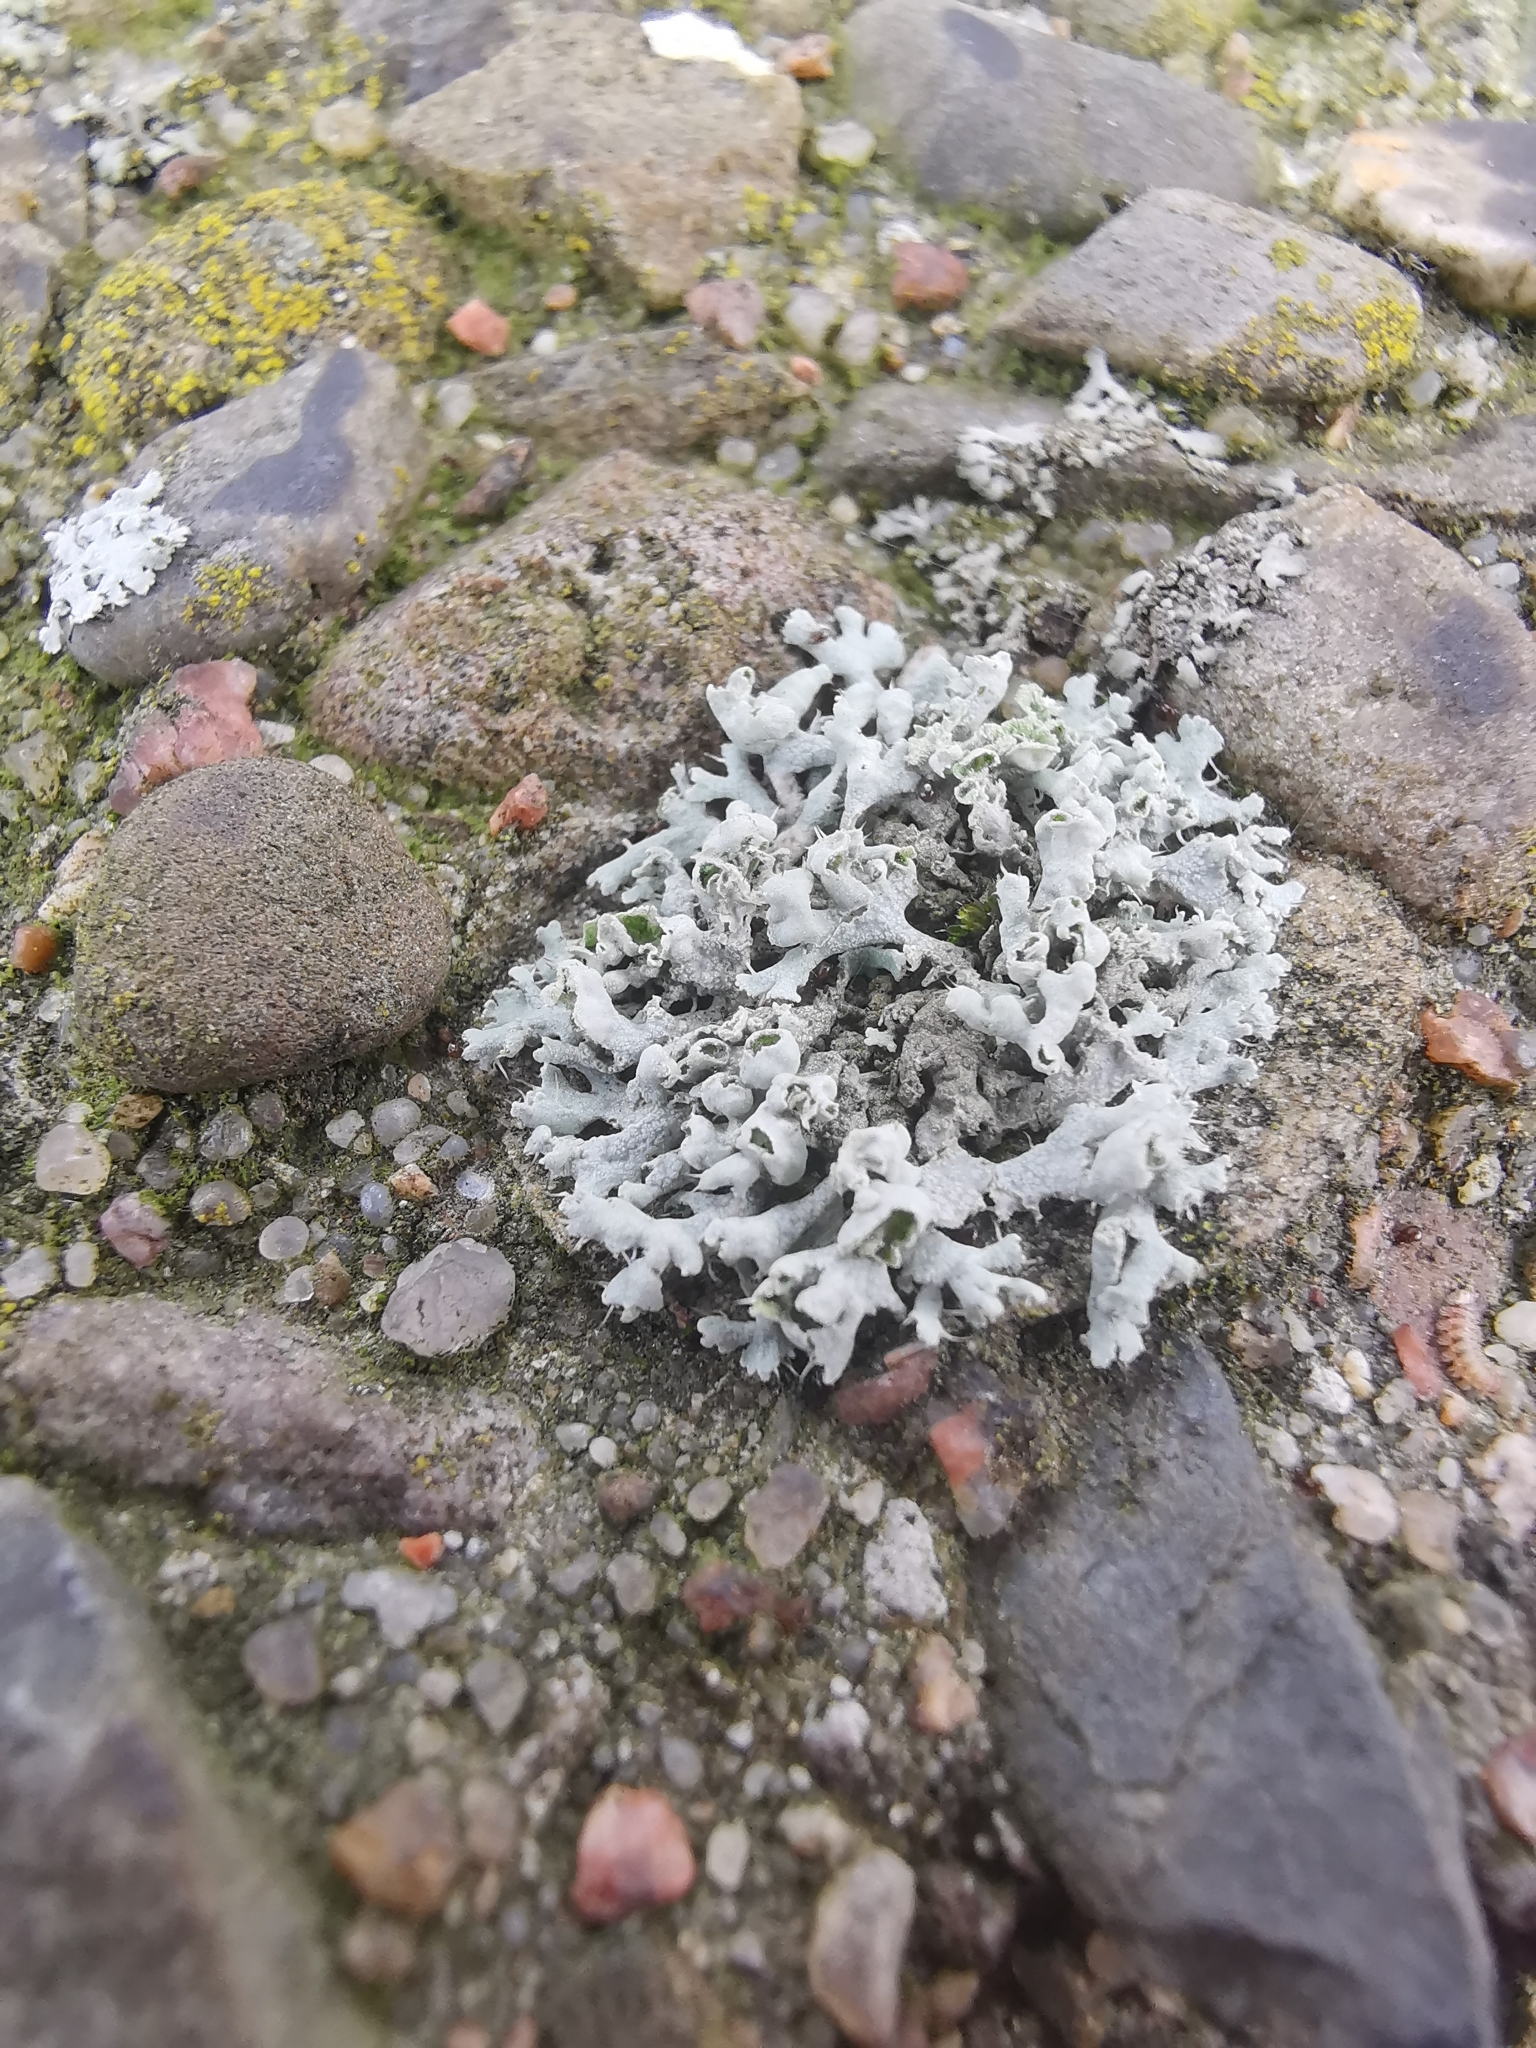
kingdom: Fungi
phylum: Ascomycota
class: Lecanoromycetes
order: Caliciales
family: Physciaceae
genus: Physcia
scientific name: Physcia adscendens
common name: Hooded rosette lichen
